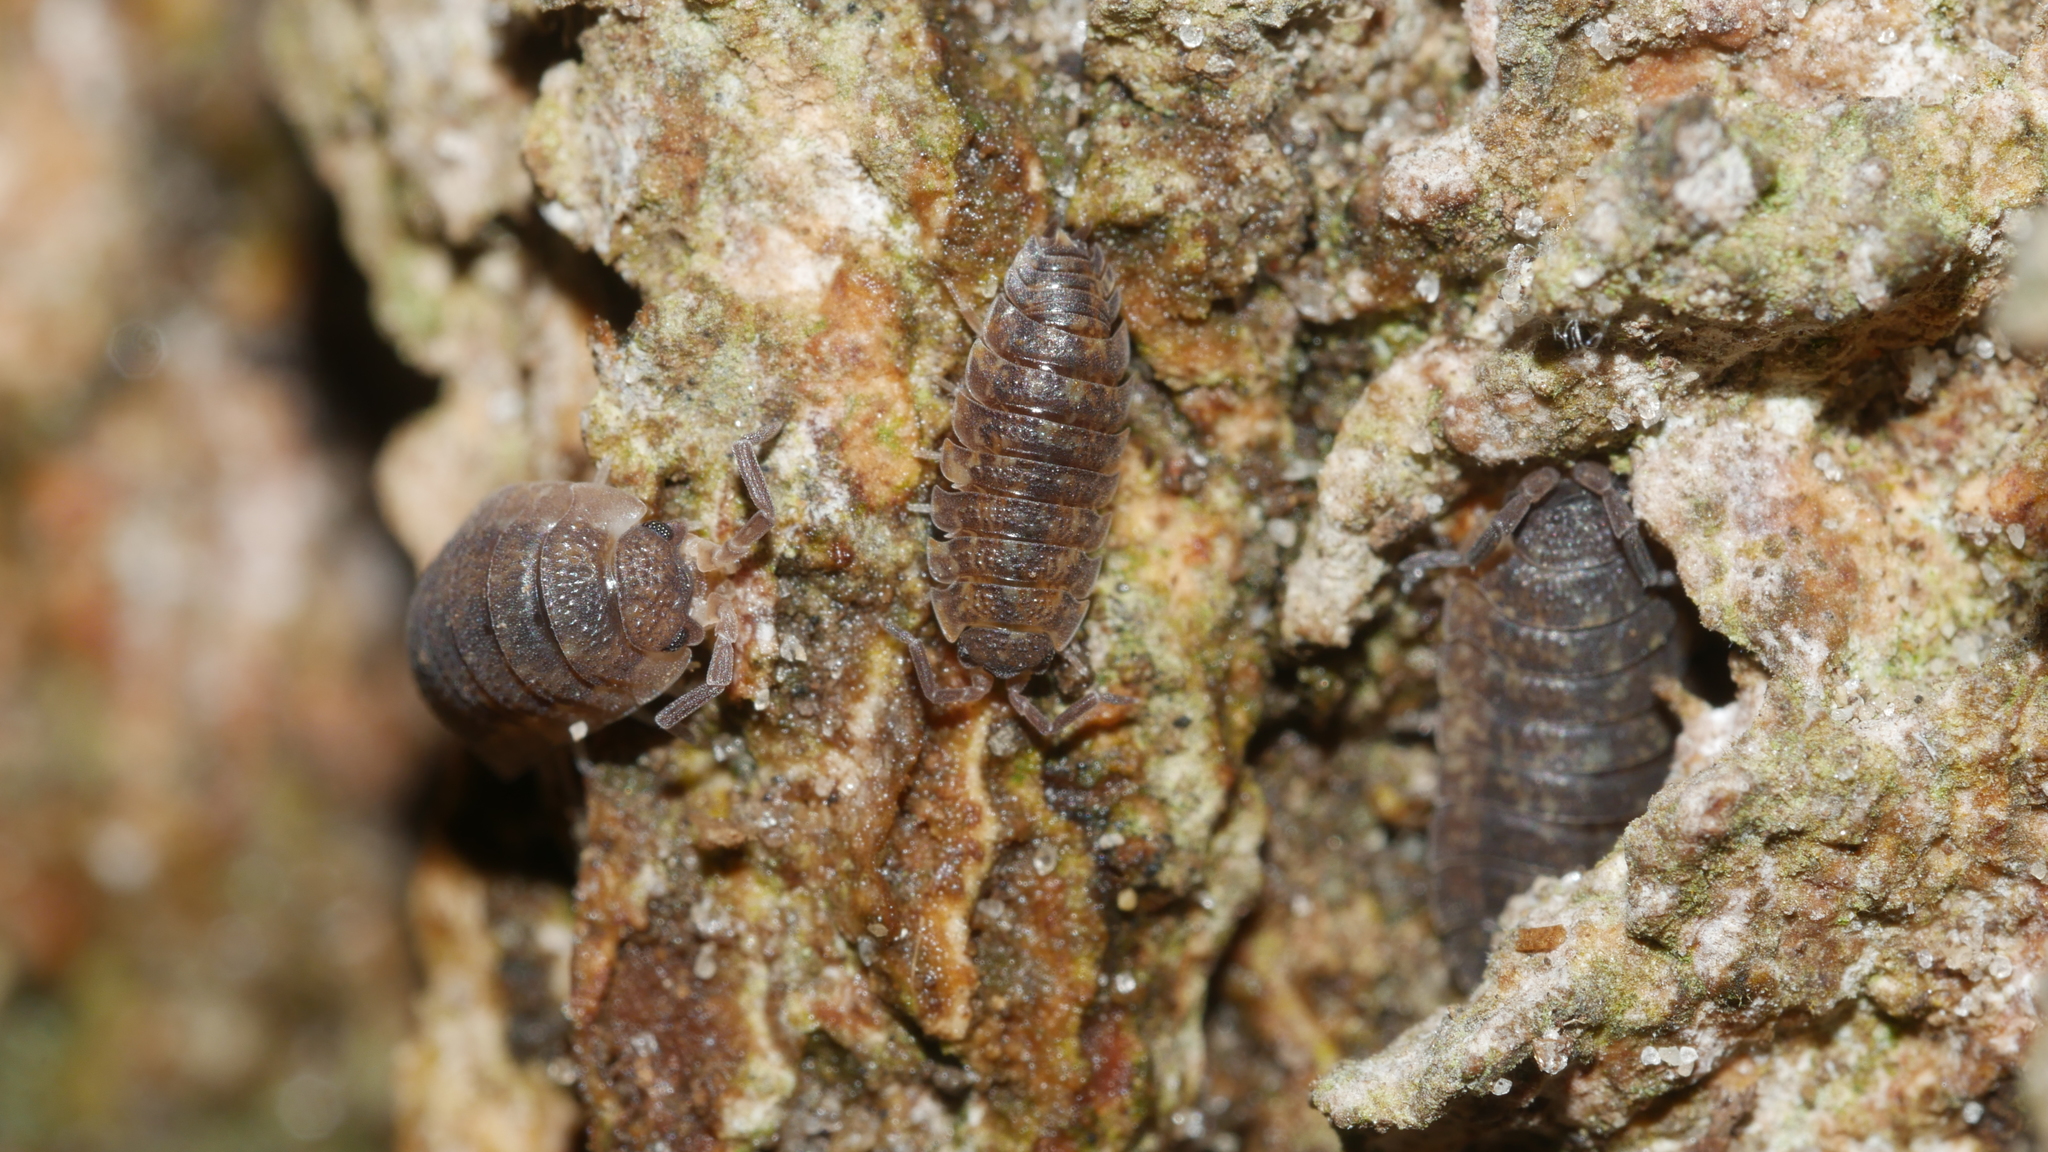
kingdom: Animalia
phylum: Arthropoda
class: Malacostraca
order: Isopoda
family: Porcellionidae
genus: Porcellio
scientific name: Porcellio scaber
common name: Common rough woodlouse
